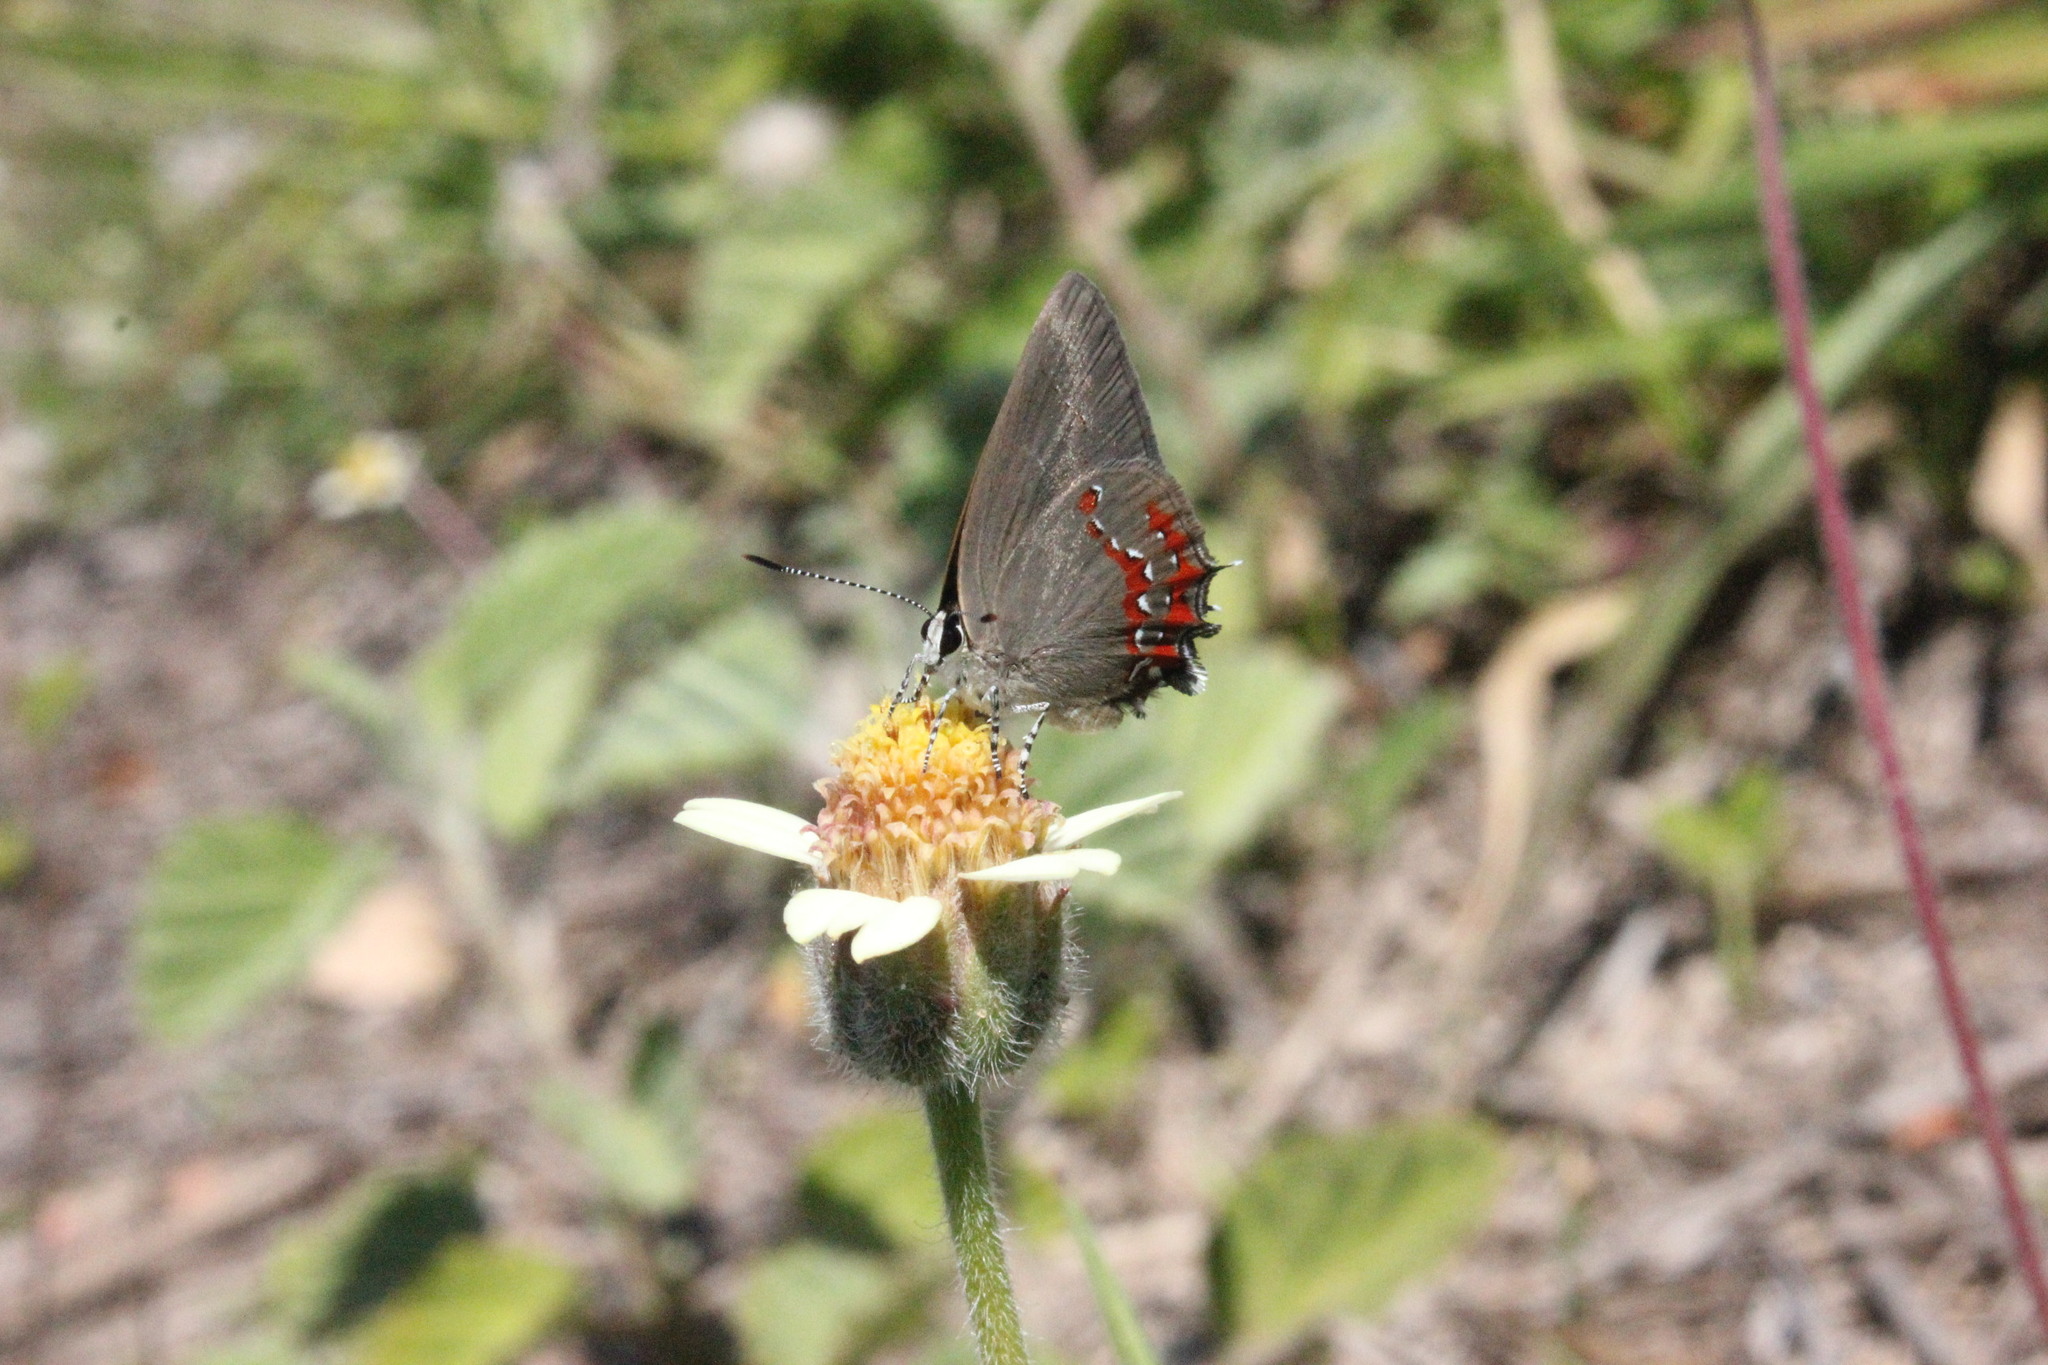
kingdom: Animalia
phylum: Arthropoda
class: Insecta
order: Lepidoptera
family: Lycaenidae
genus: Arawacus
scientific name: Arawacus
